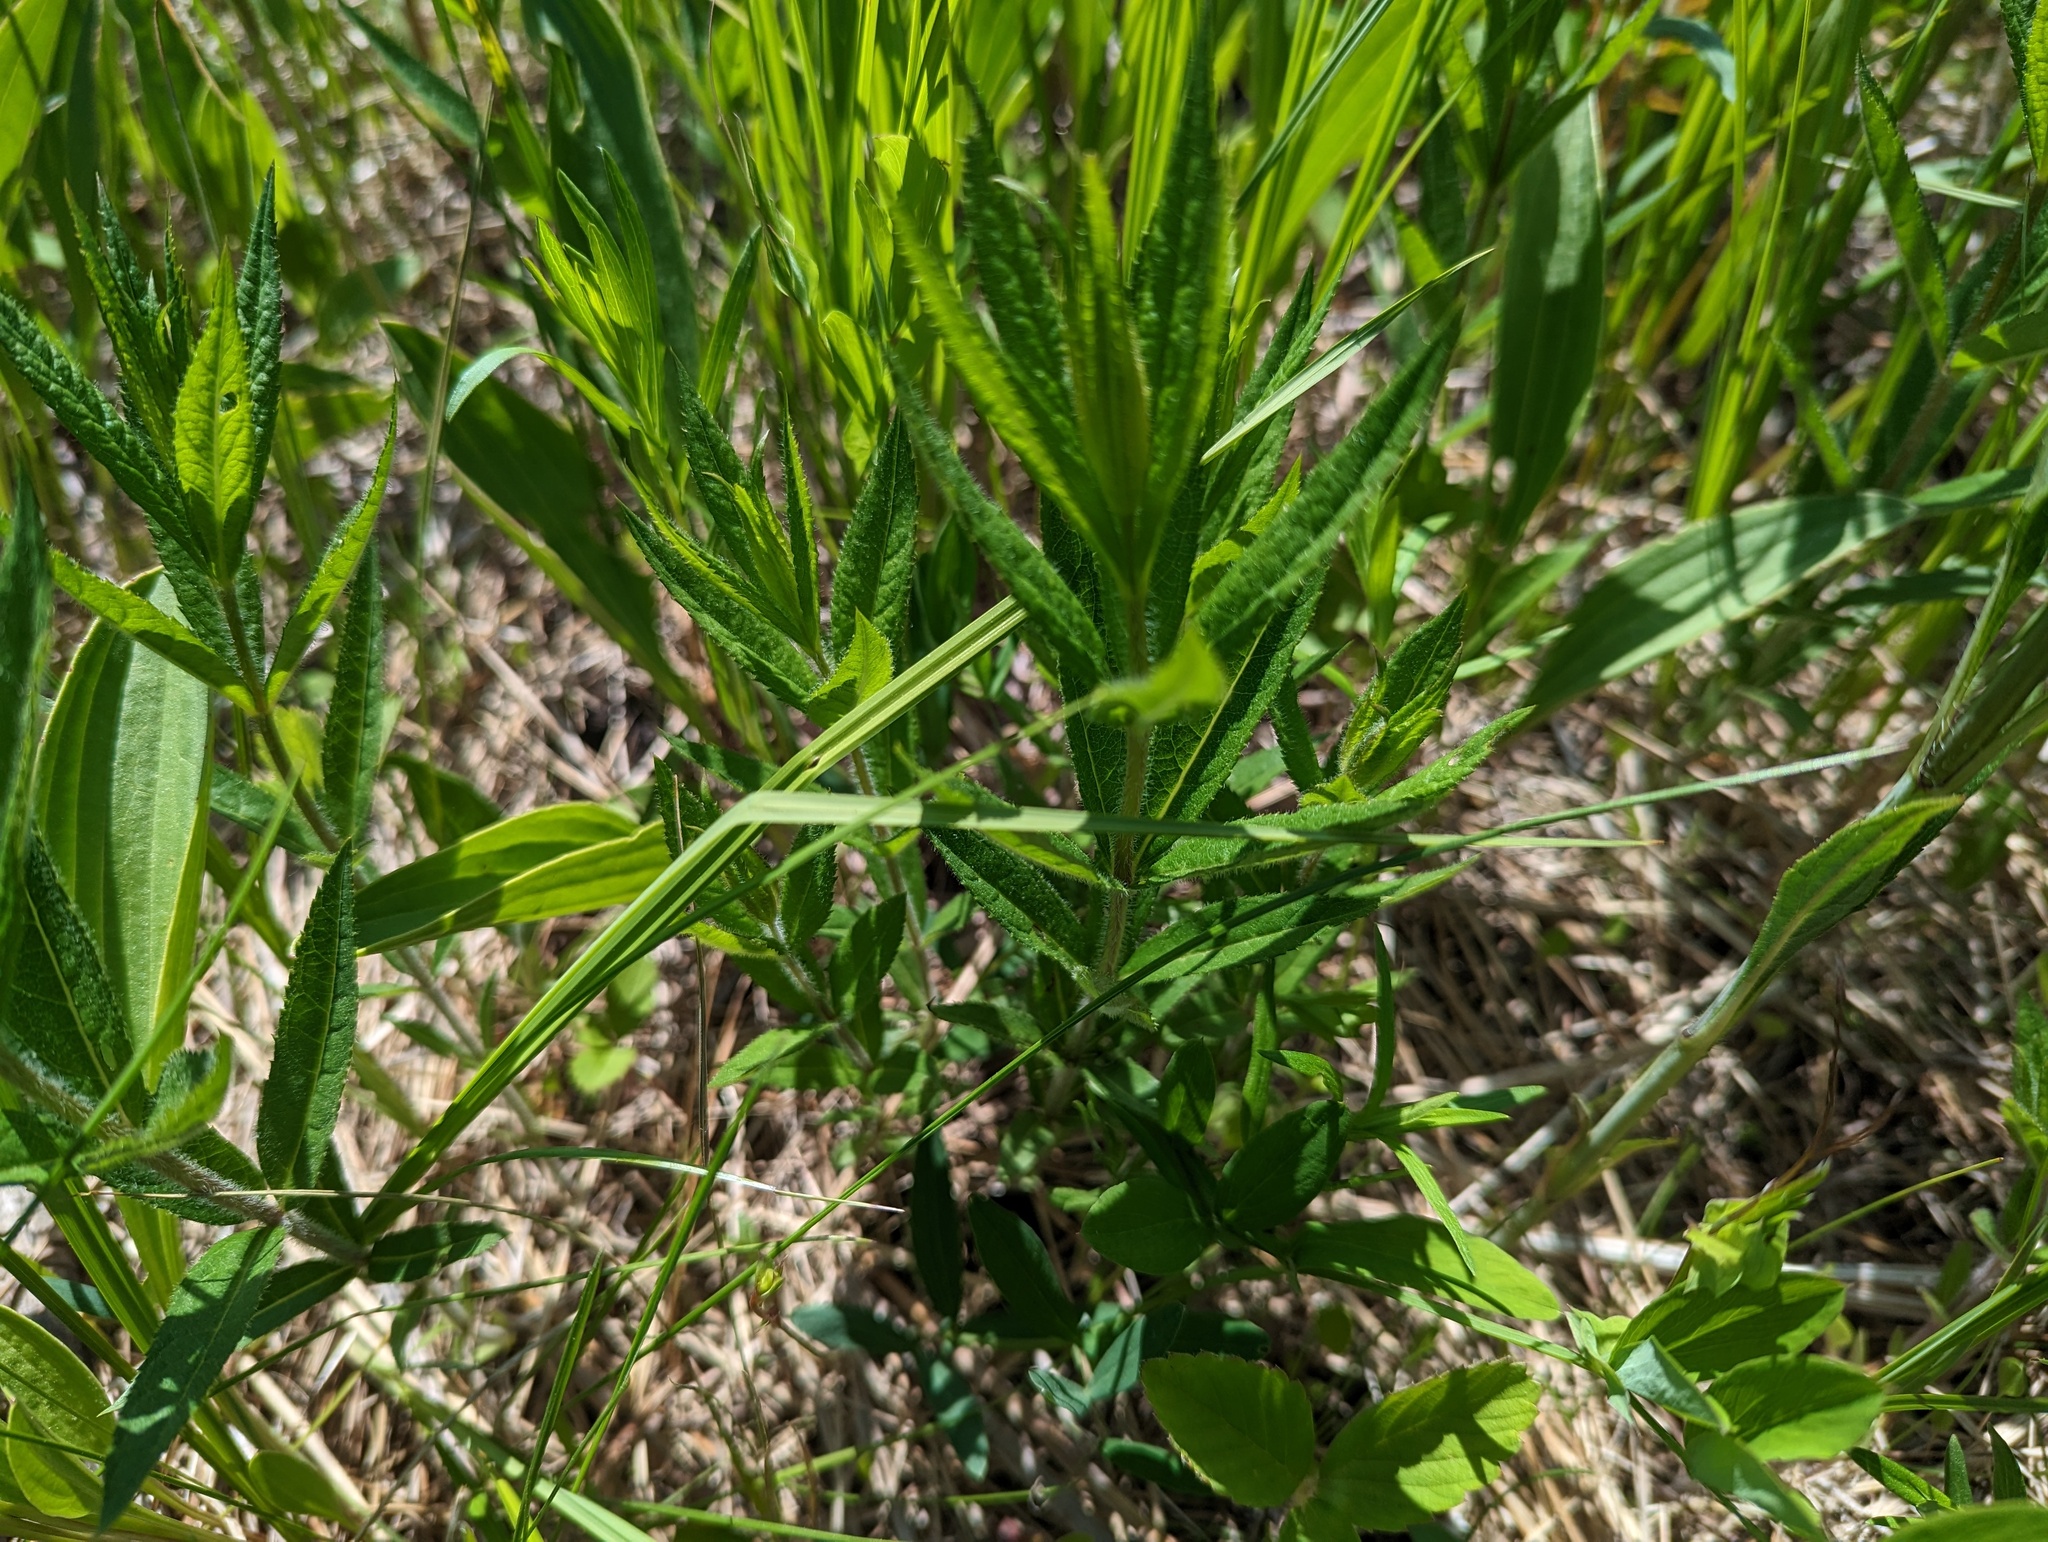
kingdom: Plantae
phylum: Tracheophyta
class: Magnoliopsida
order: Lamiales
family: Plantaginaceae
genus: Veronicastrum
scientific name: Veronicastrum virginicum
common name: Blackroot
